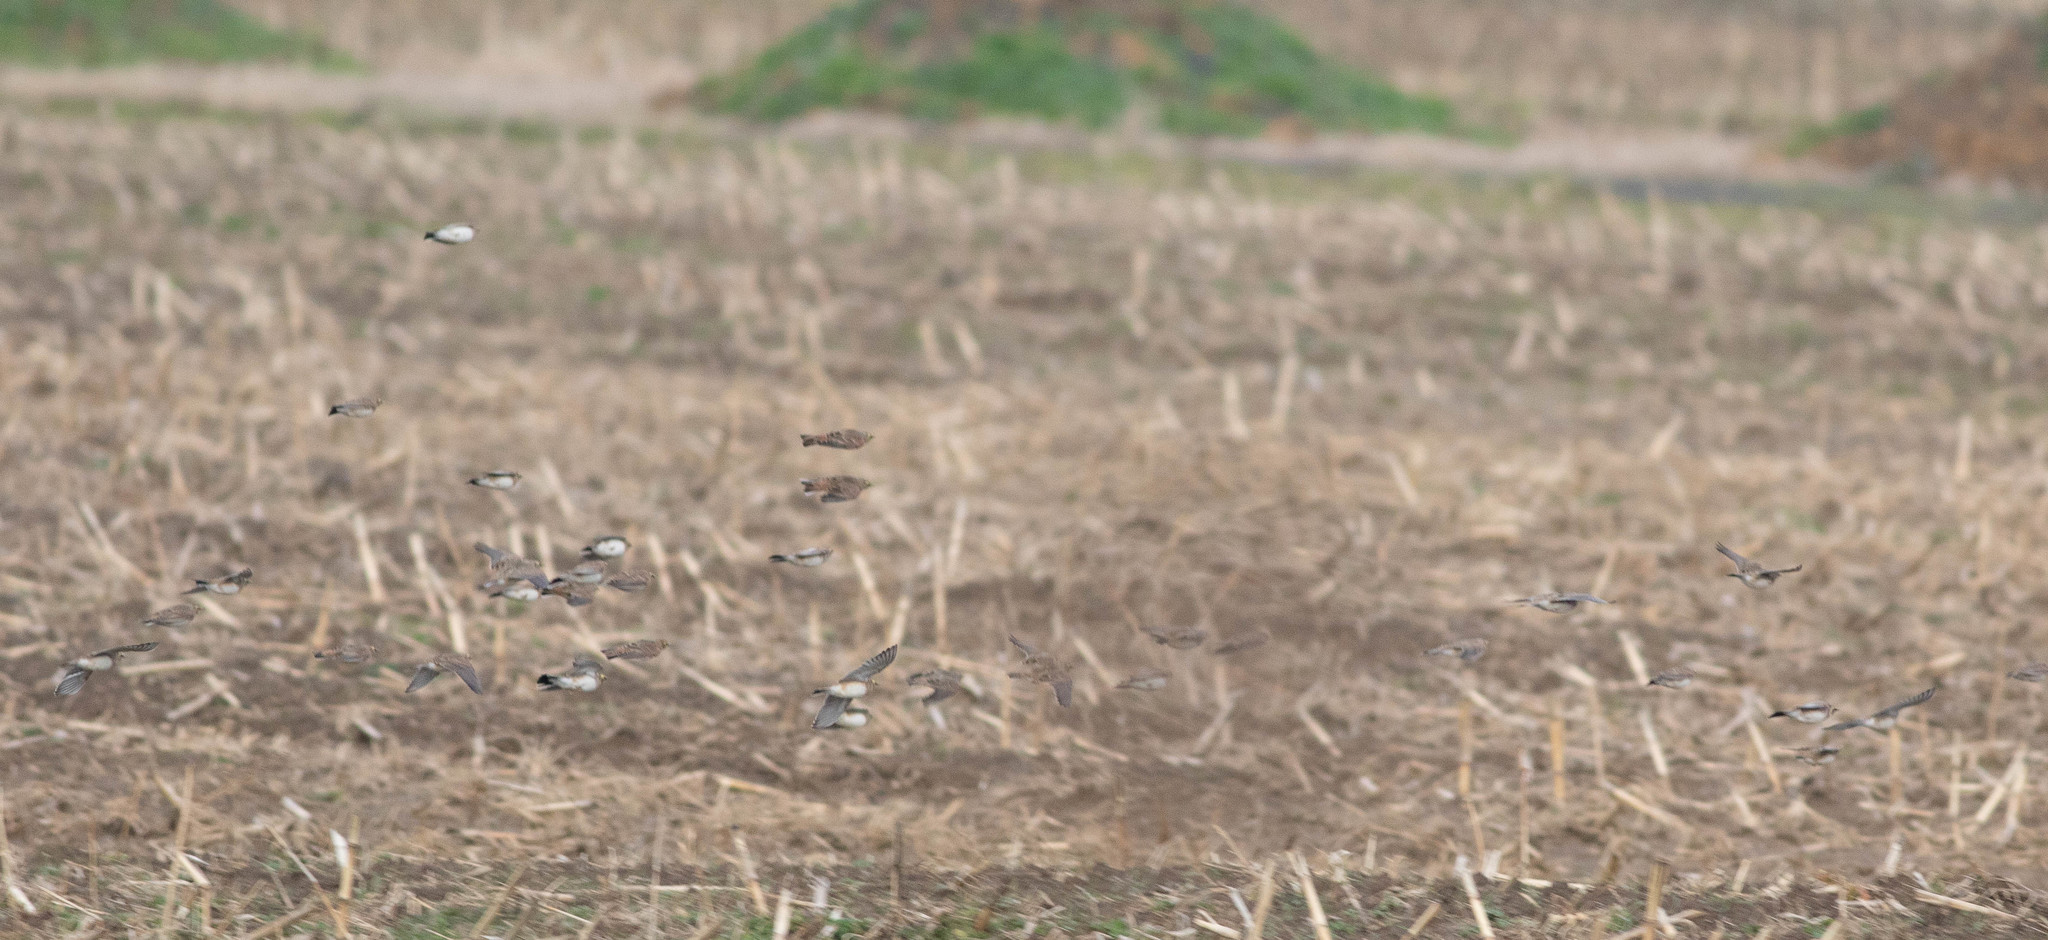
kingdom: Animalia
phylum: Chordata
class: Aves
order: Passeriformes
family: Alaudidae
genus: Eremophila
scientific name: Eremophila alpestris
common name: Horned lark
